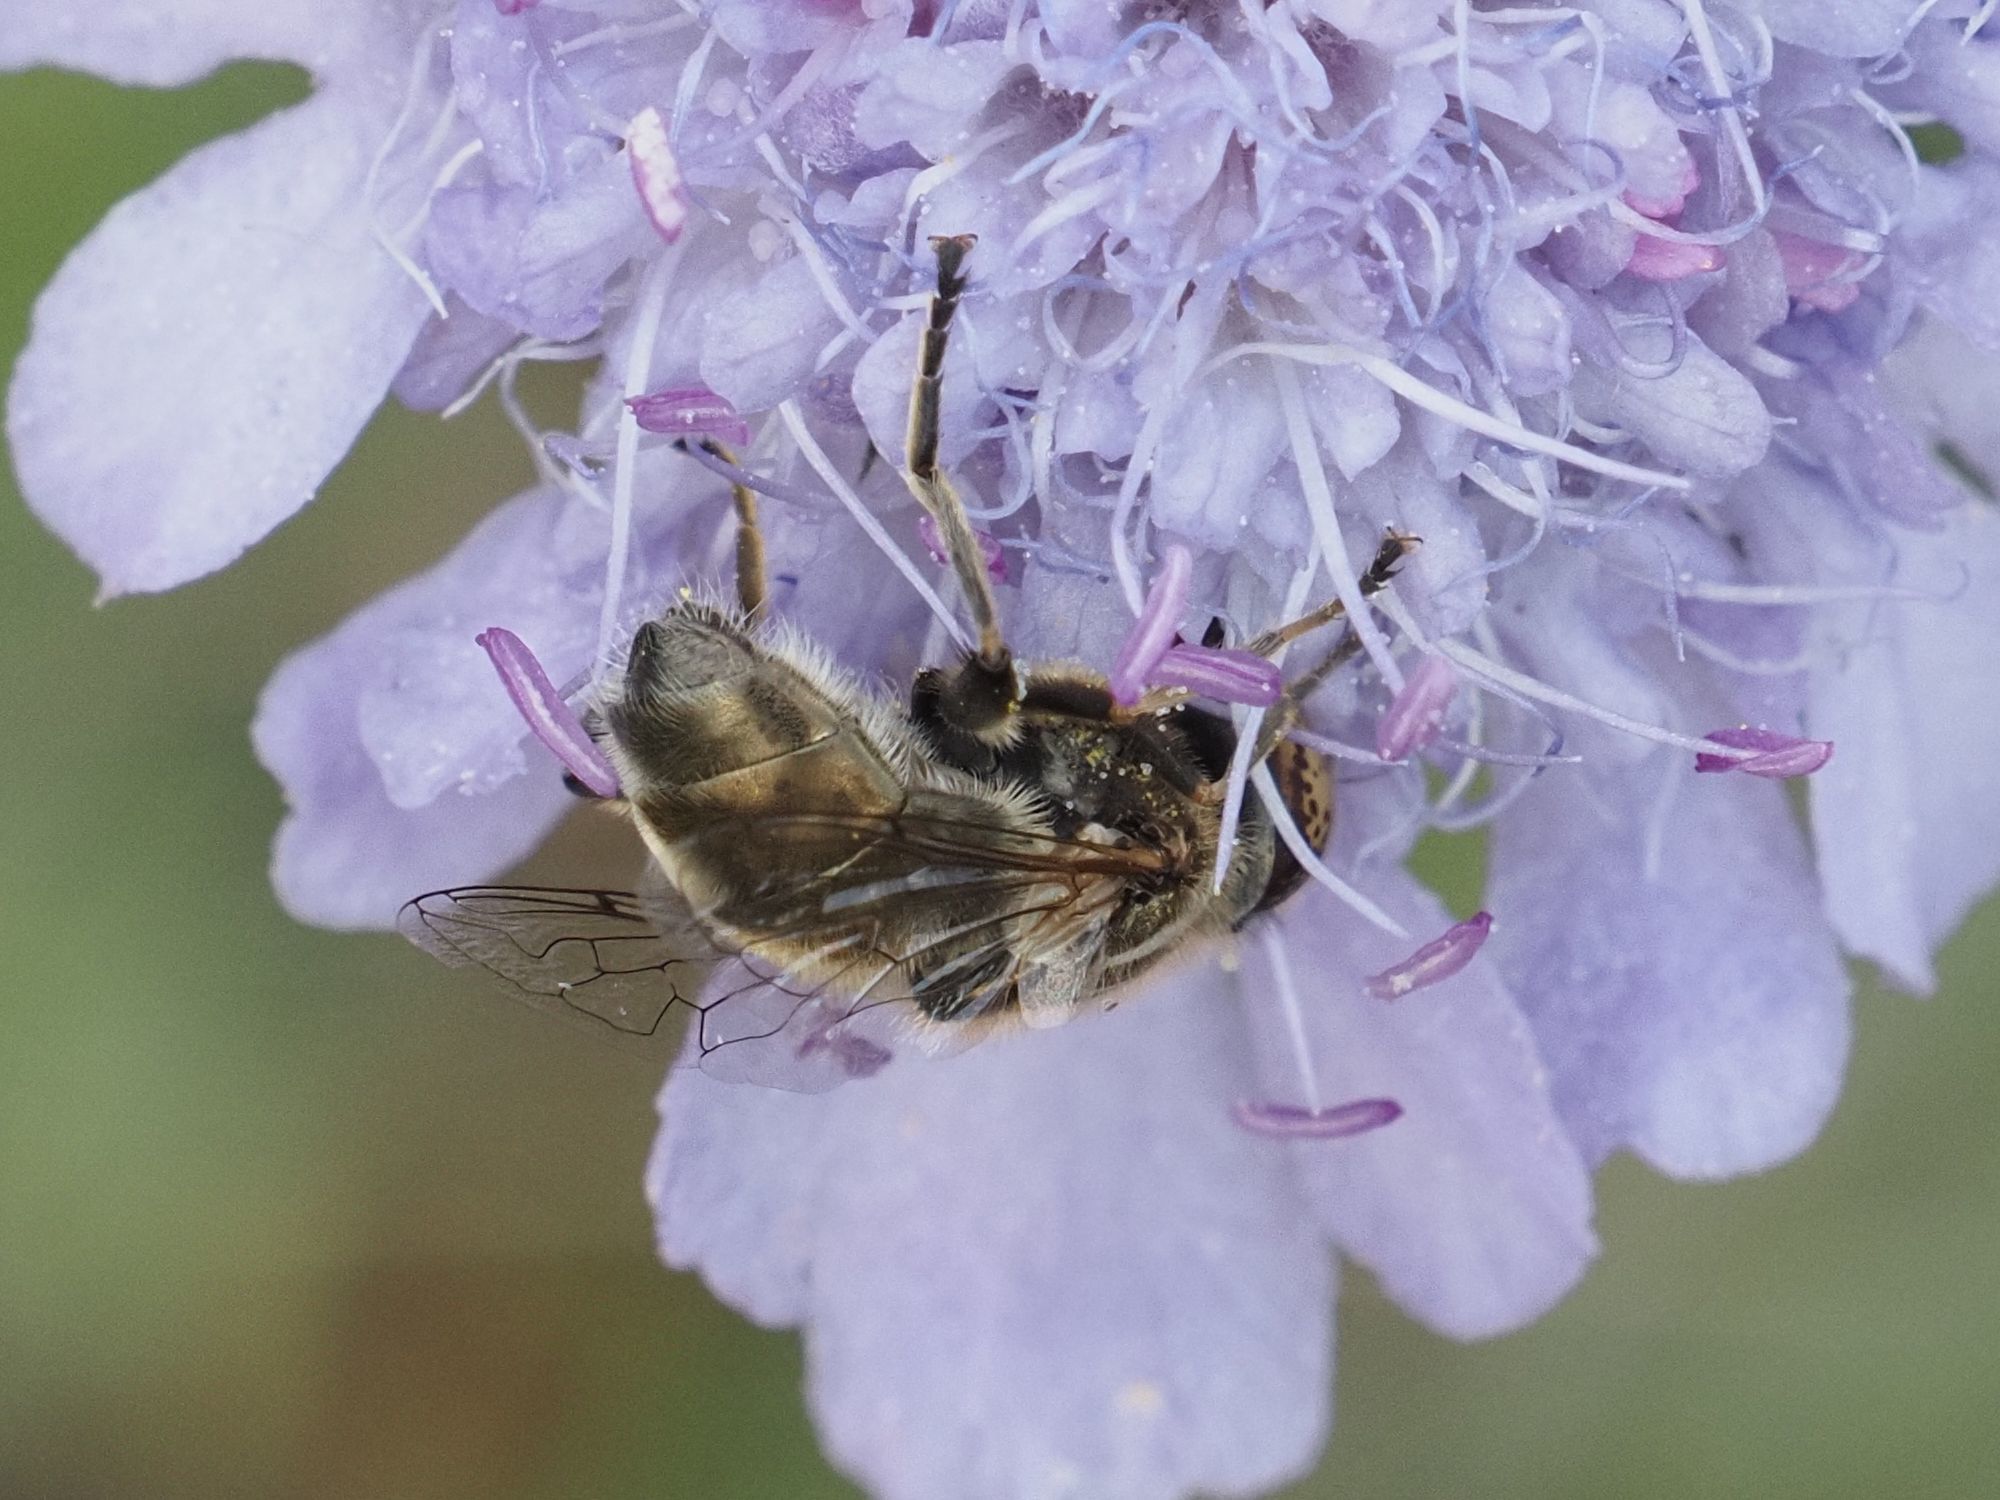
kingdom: Animalia
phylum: Arthropoda
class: Insecta
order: Diptera
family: Syrphidae
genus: Eristalinus
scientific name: Eristalinus sepulchralis
